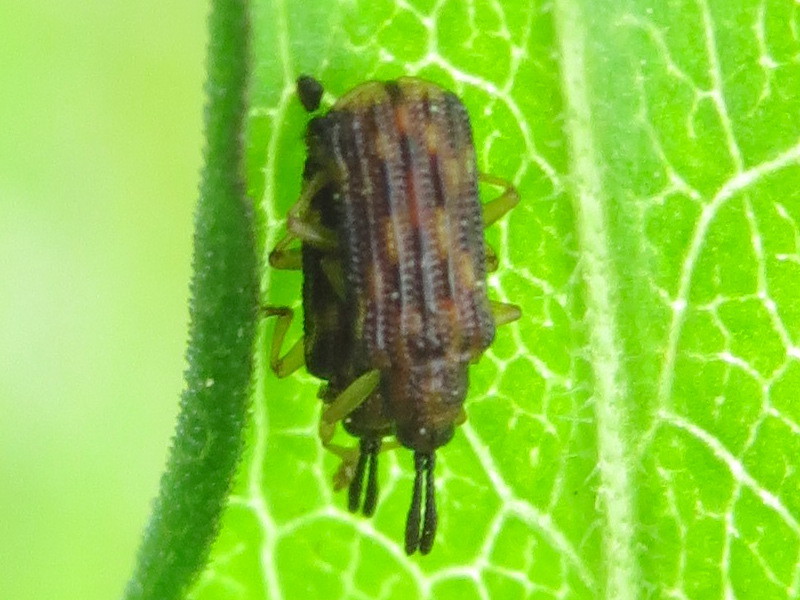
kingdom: Animalia
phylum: Arthropoda
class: Insecta
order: Coleoptera
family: Chrysomelidae
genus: Sumitrosis
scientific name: Sumitrosis inaequalis
